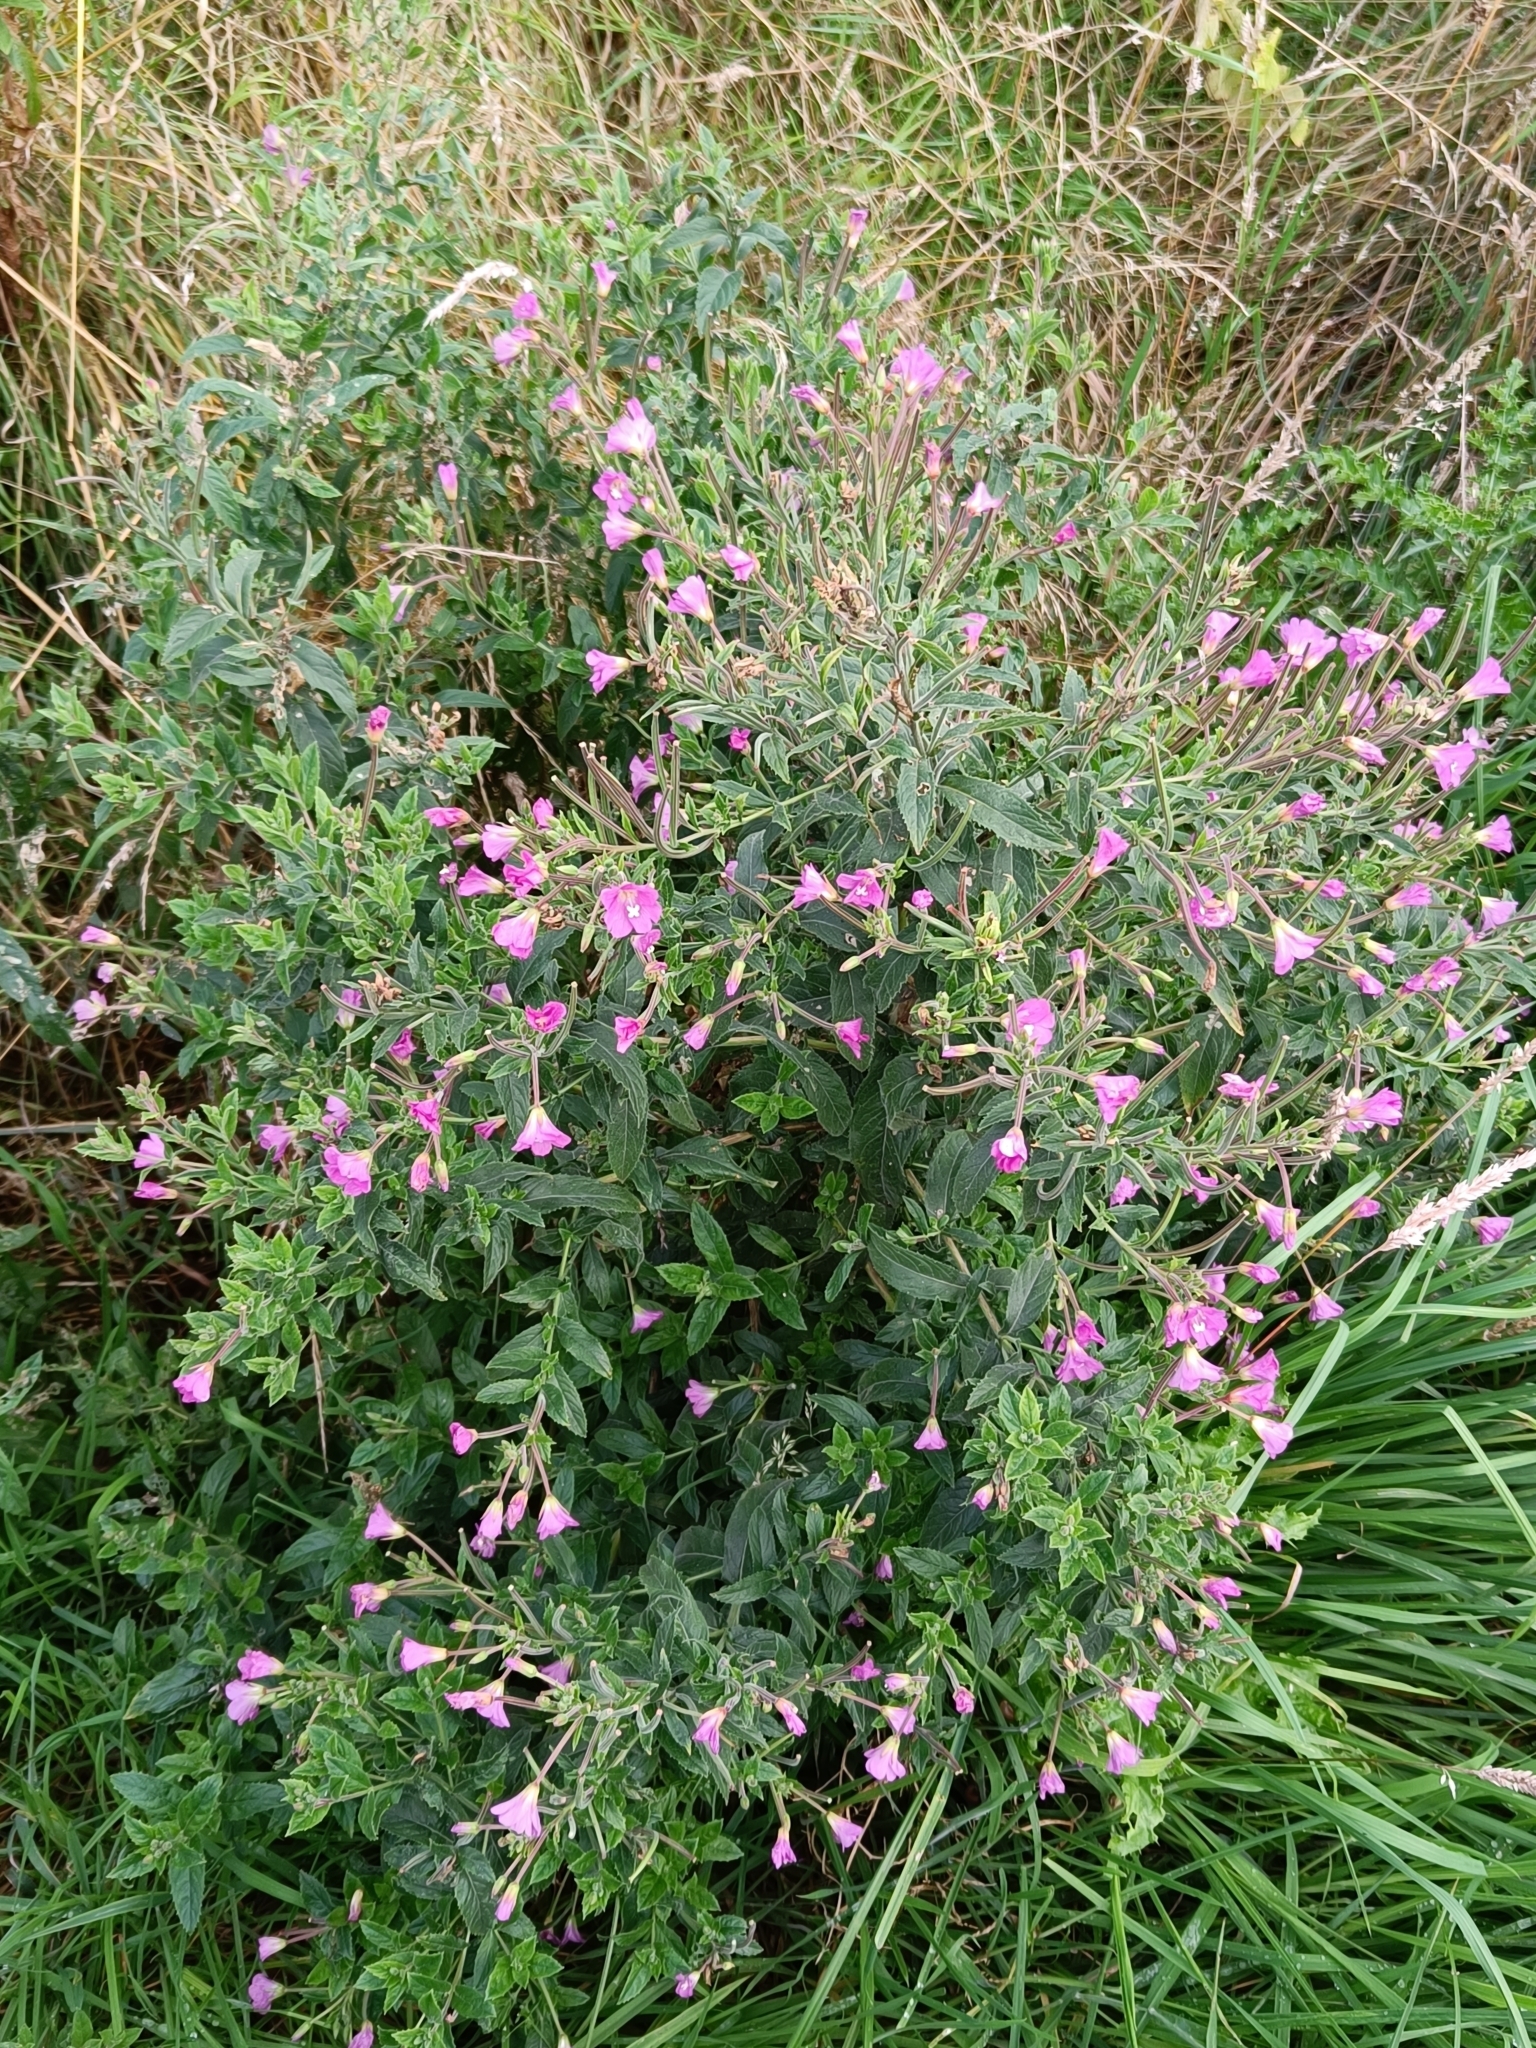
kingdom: Plantae
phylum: Tracheophyta
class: Magnoliopsida
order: Myrtales
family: Onagraceae
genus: Epilobium
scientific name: Epilobium hirsutum
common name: Great willowherb
